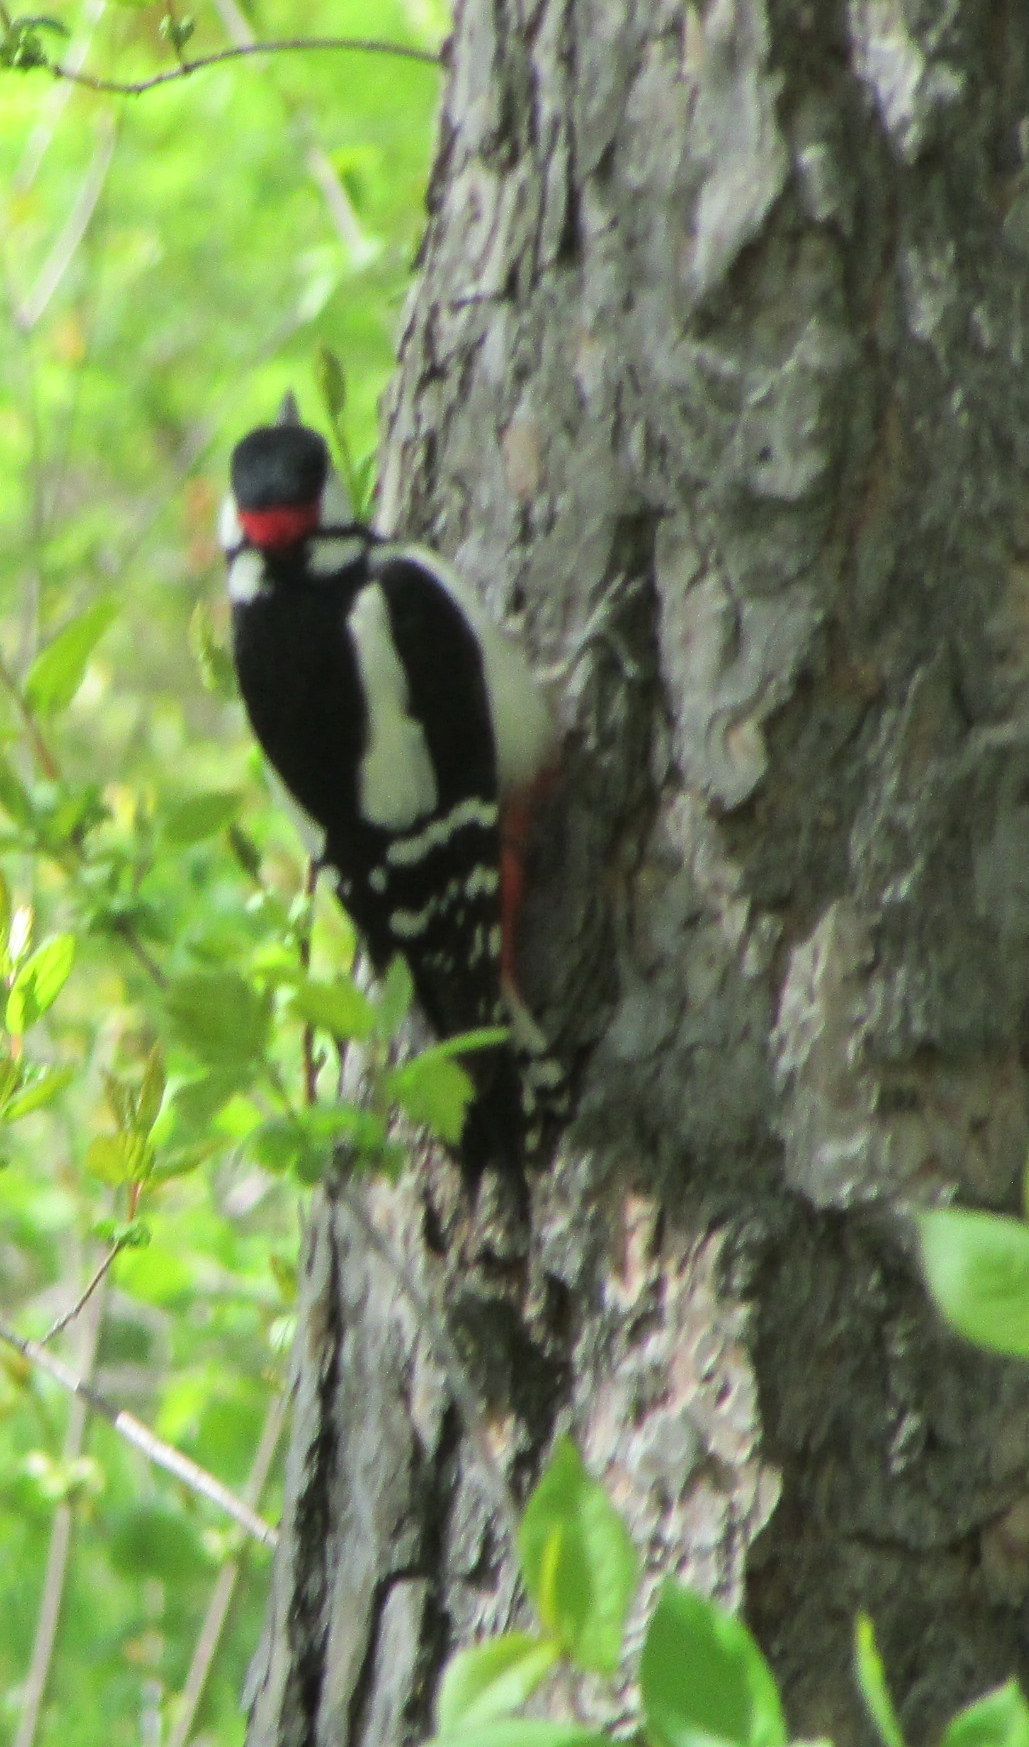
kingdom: Animalia
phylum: Chordata
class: Aves
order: Piciformes
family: Picidae
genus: Dendrocopos
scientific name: Dendrocopos major
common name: Great spotted woodpecker
